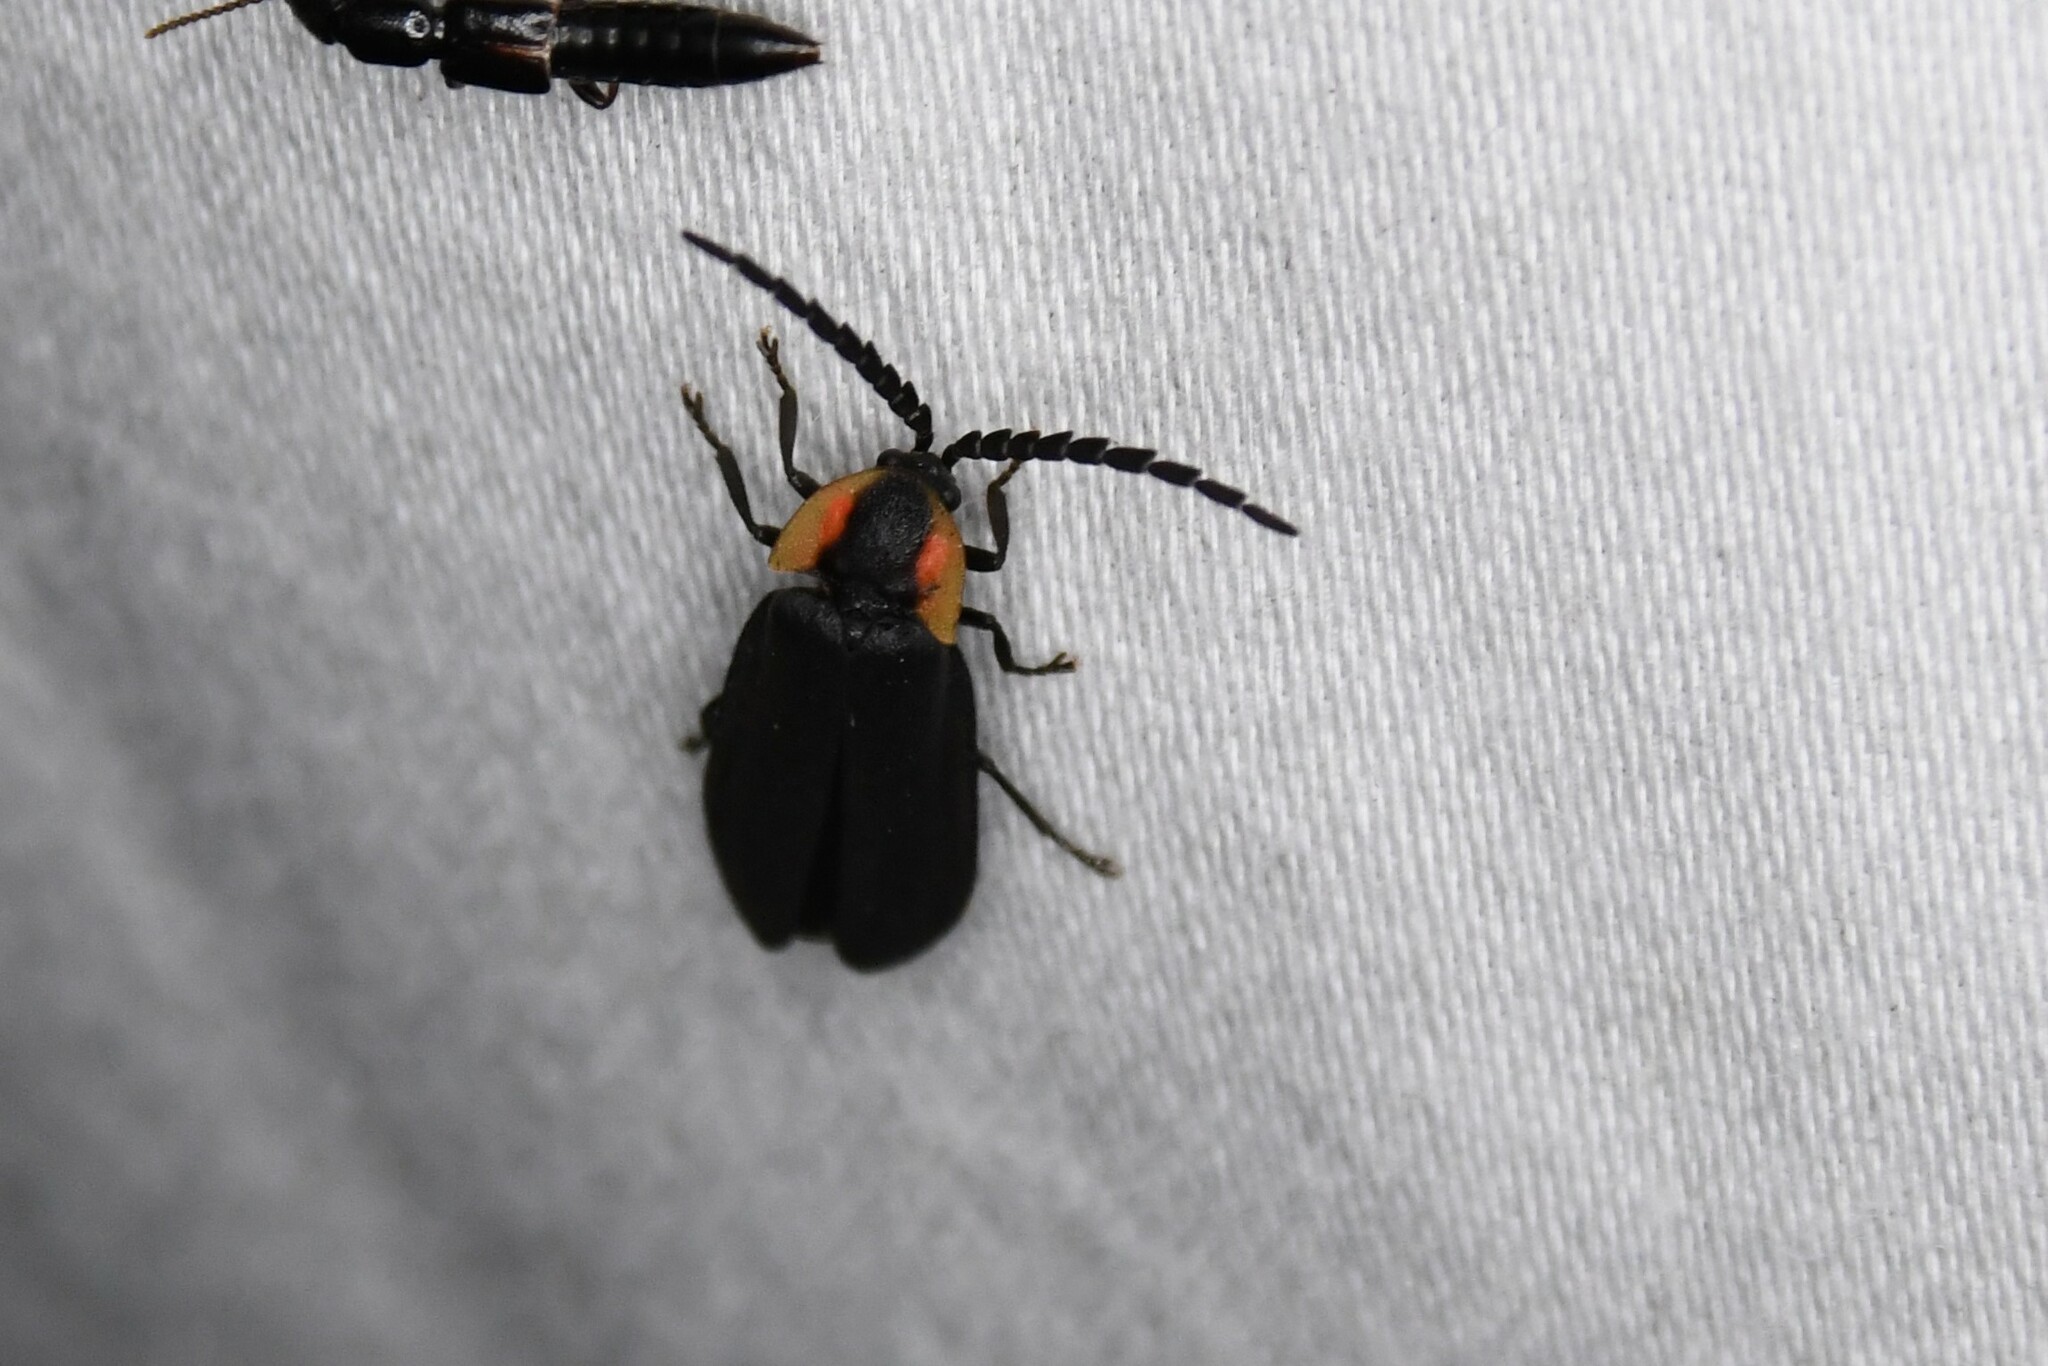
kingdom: Animalia
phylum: Arthropoda
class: Insecta
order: Coleoptera
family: Lampyridae
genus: Lucidota
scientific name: Lucidota atra
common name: Black firefly
